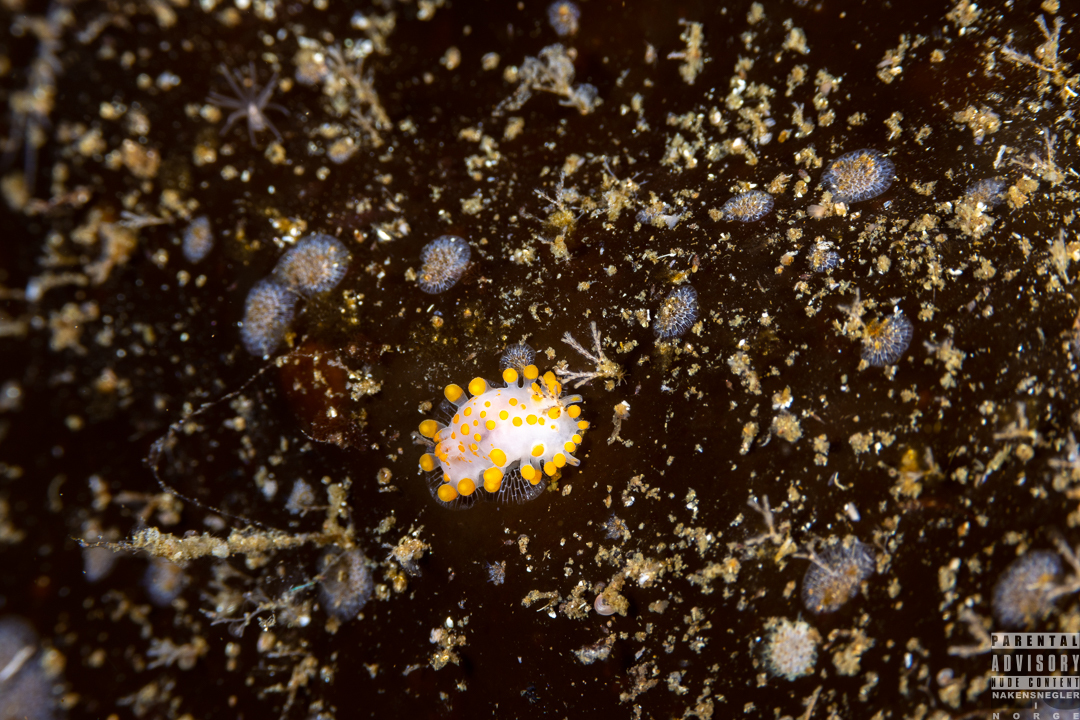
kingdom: Animalia
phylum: Mollusca
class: Gastropoda
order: Nudibranchia
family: Polyceridae
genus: Limacia
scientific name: Limacia clavigera
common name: Orange-clubbed sea slug
